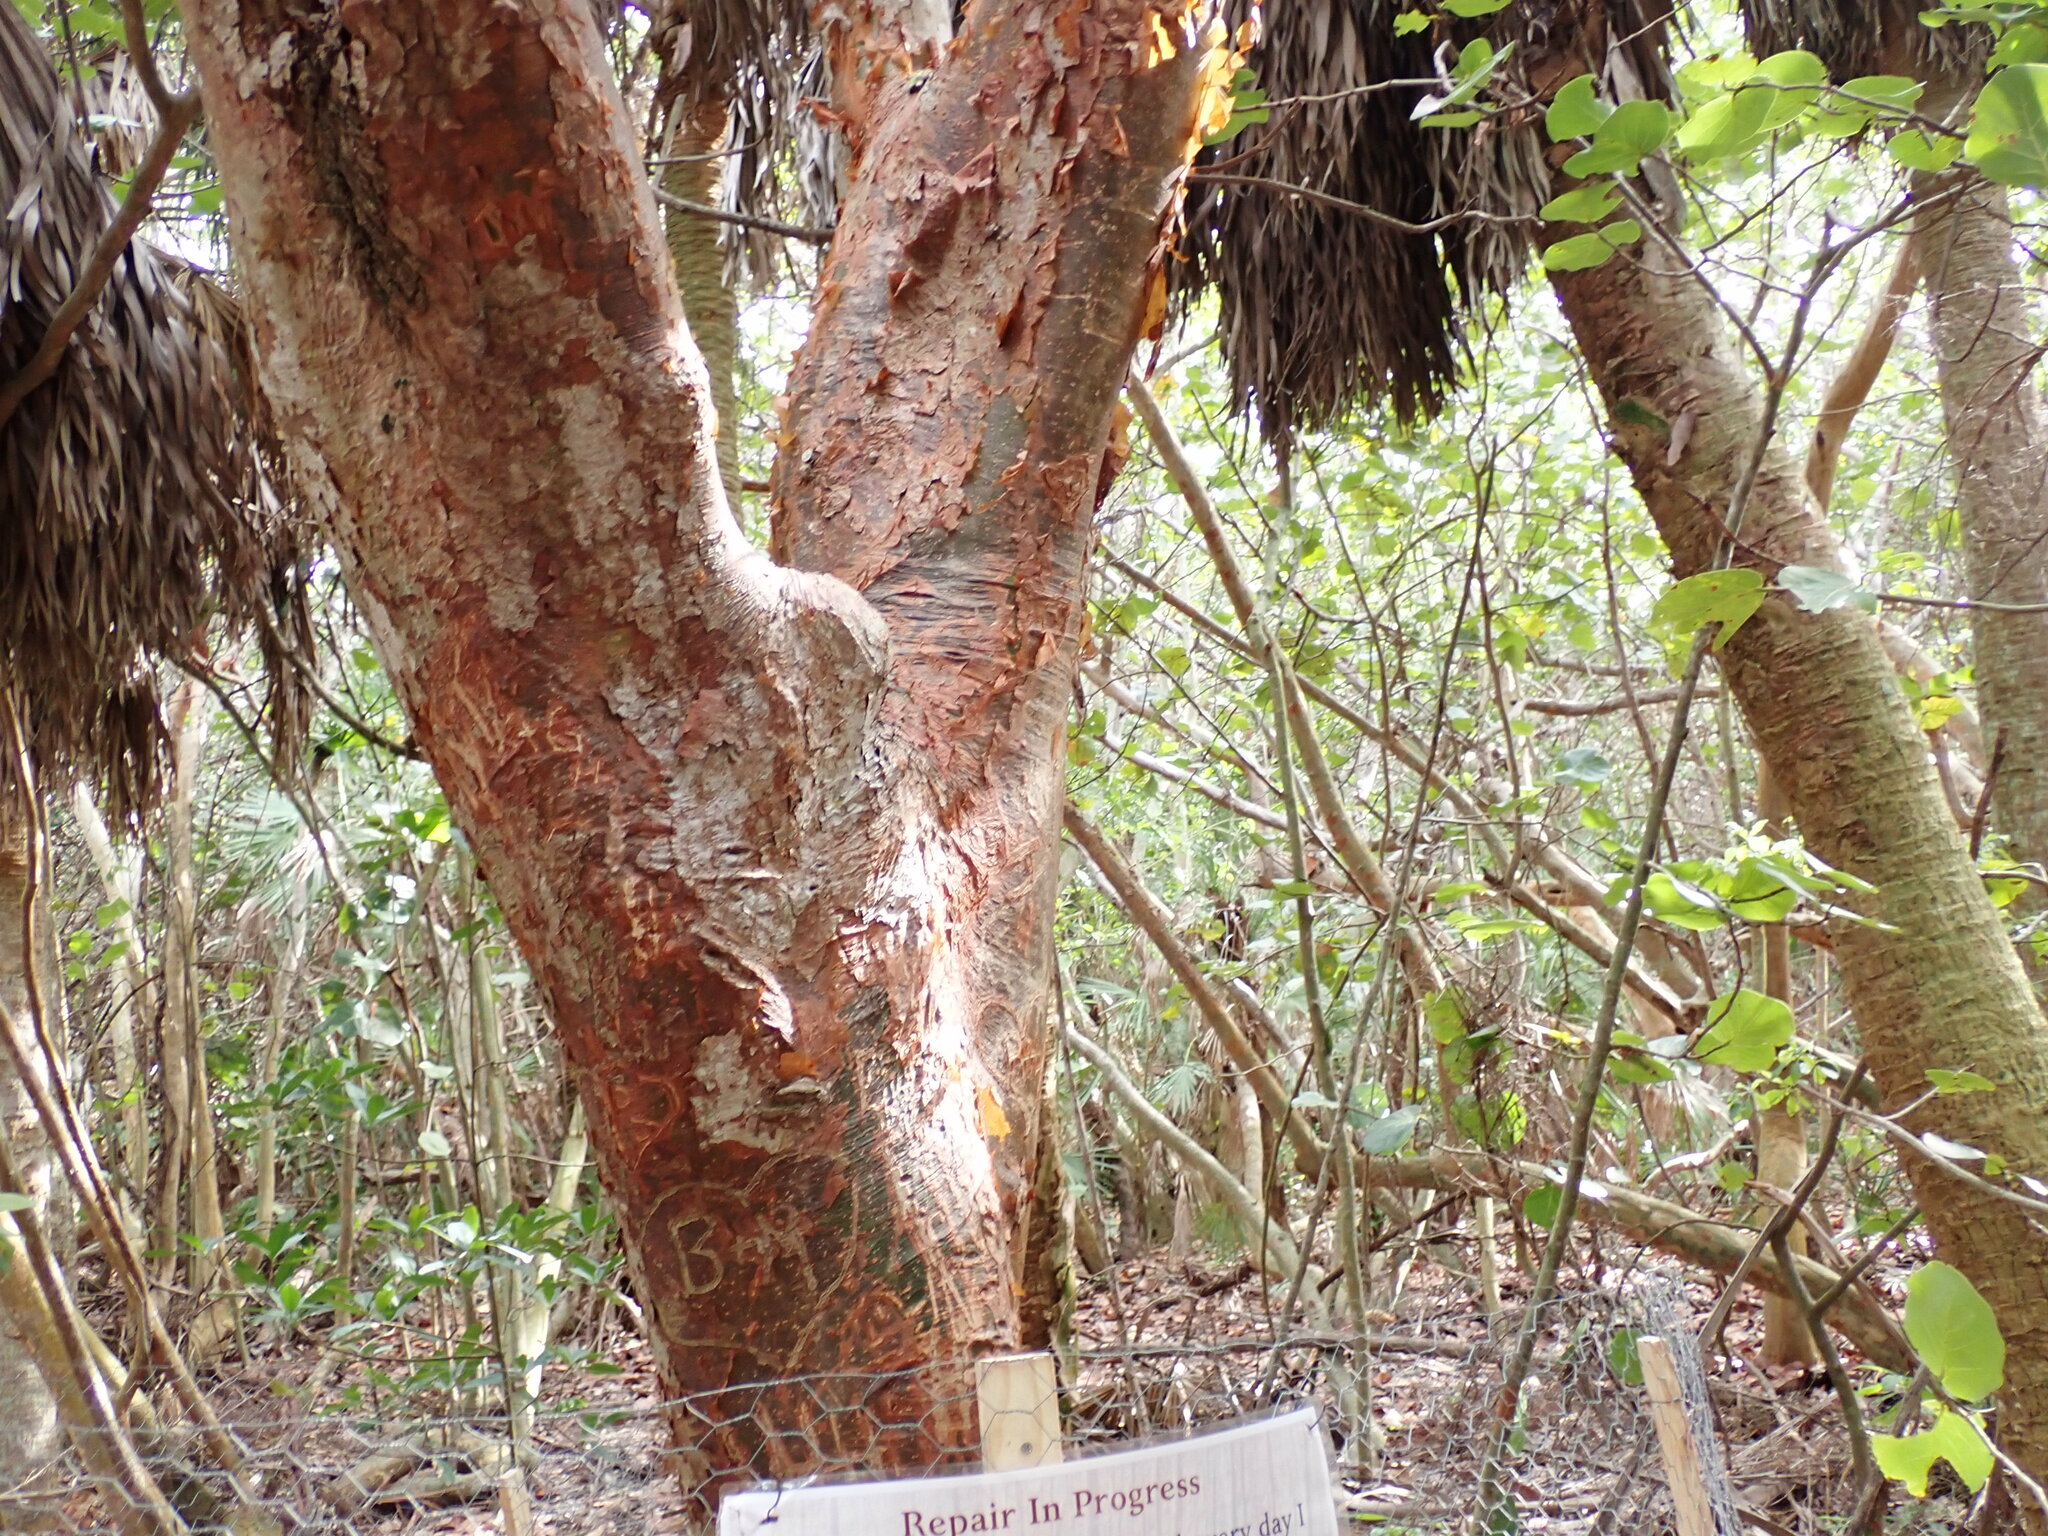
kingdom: Plantae
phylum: Tracheophyta
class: Magnoliopsida
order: Sapindales
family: Burseraceae
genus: Bursera
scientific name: Bursera simaruba
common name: Turpentine tree
